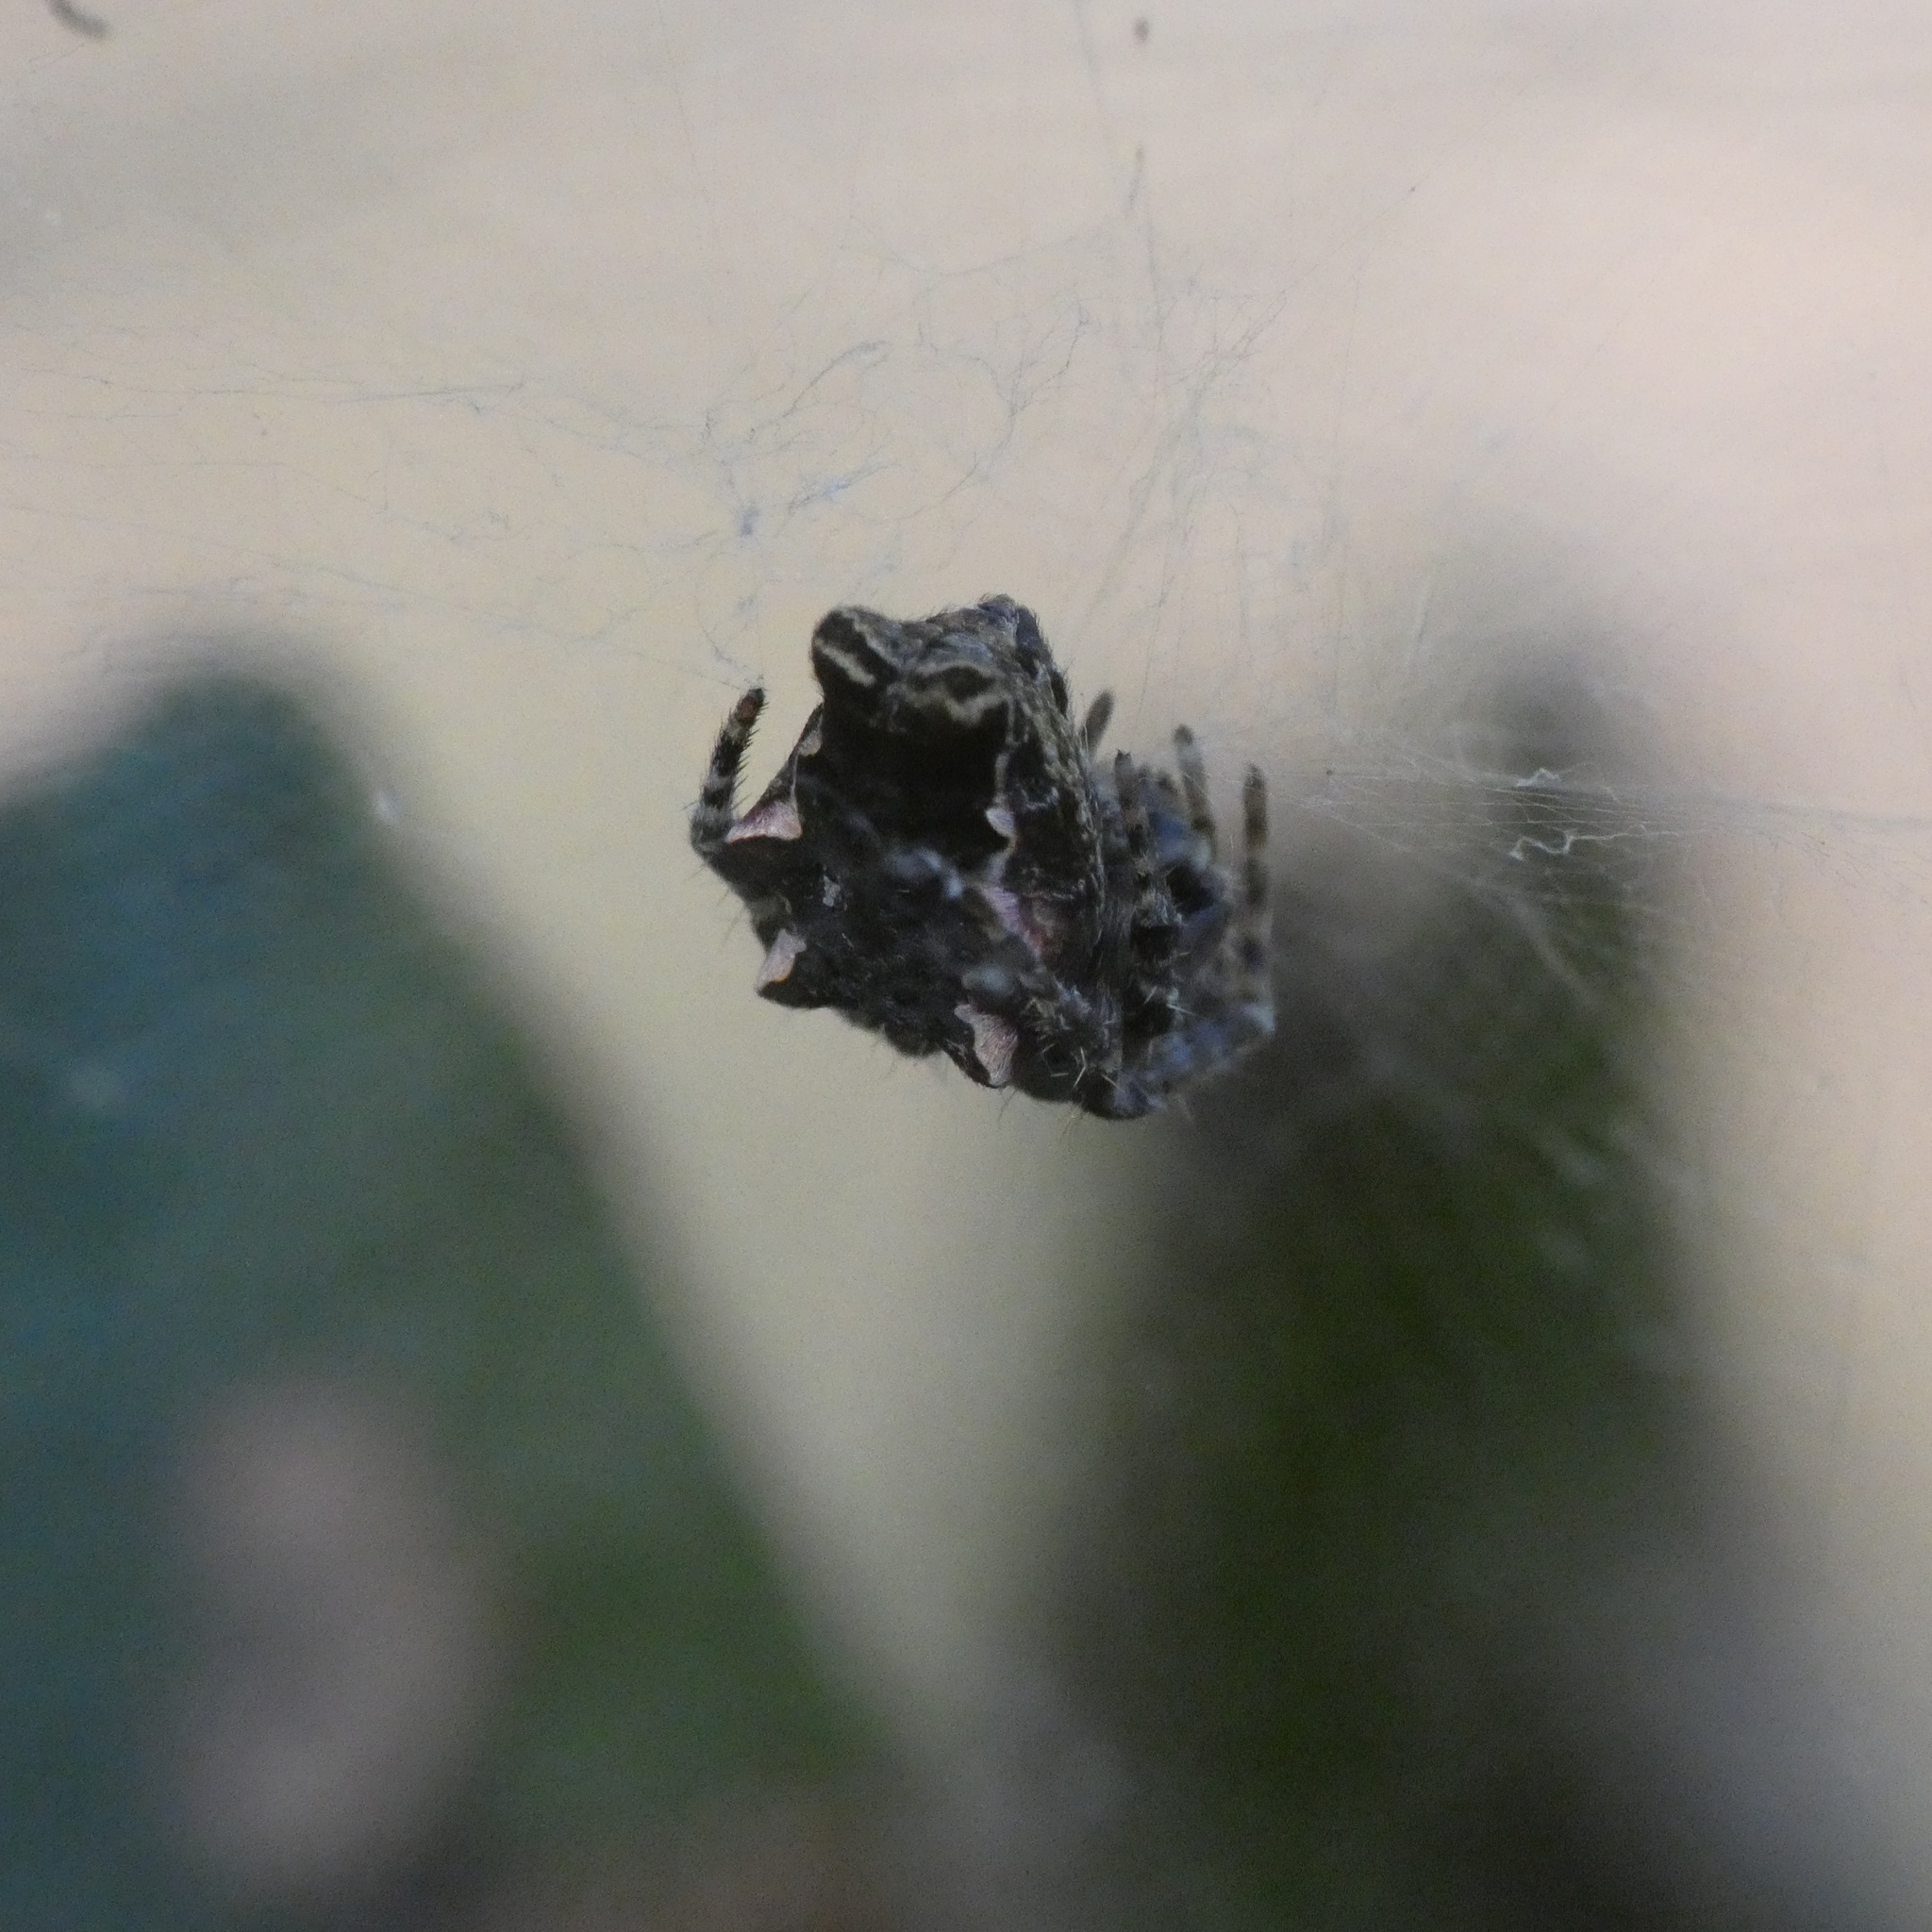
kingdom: Animalia
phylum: Arthropoda
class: Arachnida
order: Araneae
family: Araneidae
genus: Cyrtophora
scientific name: Cyrtophora citricola
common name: Orb weavers
